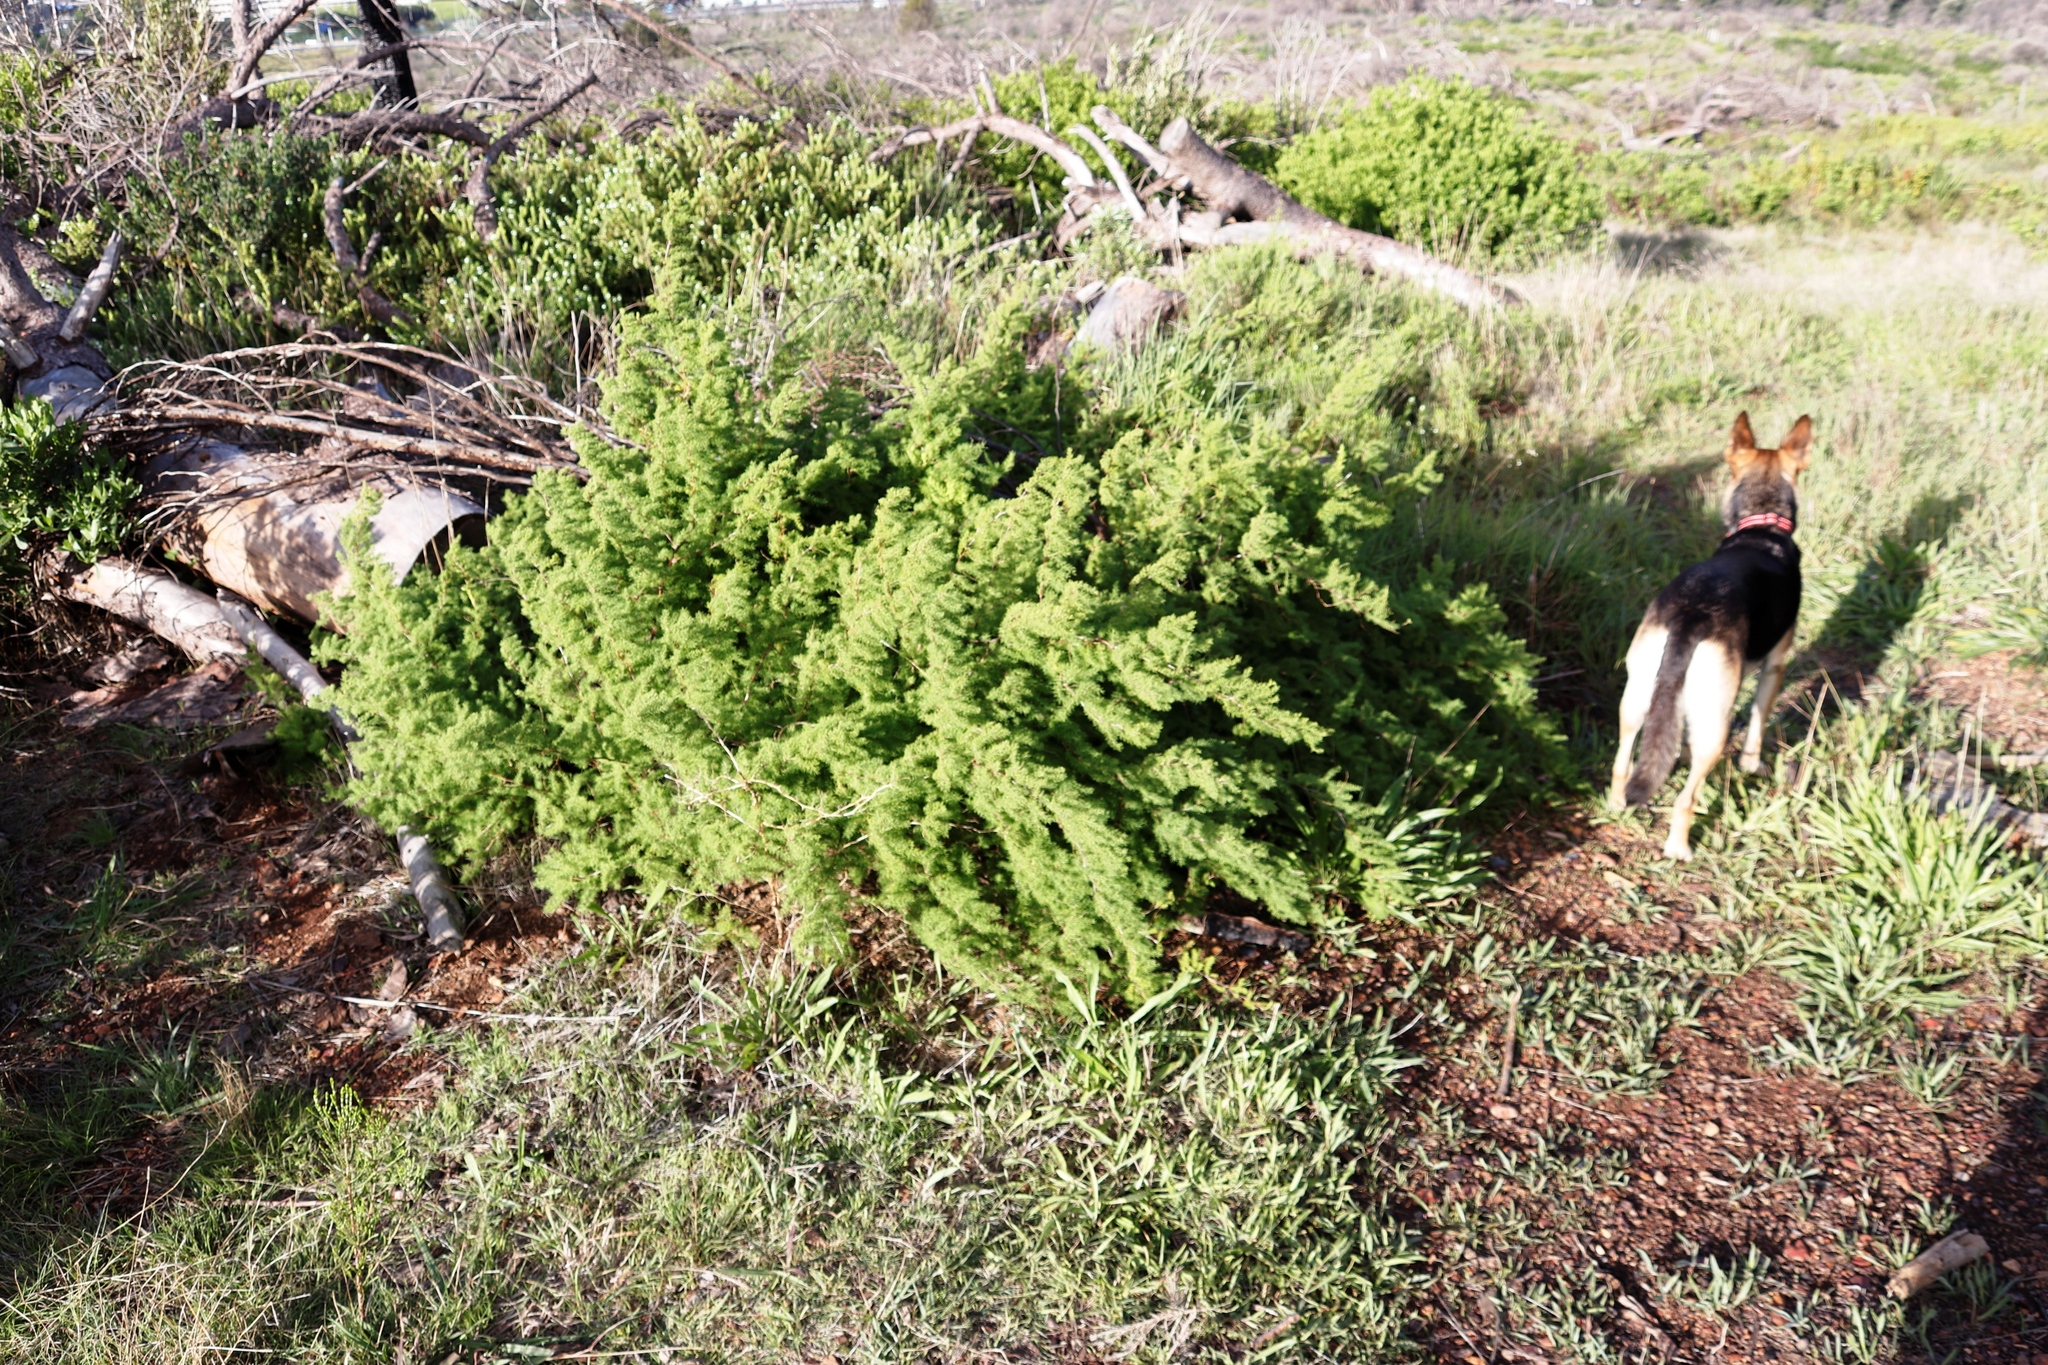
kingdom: Plantae
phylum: Tracheophyta
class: Liliopsida
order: Asparagales
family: Asparagaceae
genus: Asparagus
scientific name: Asparagus rubicundus
